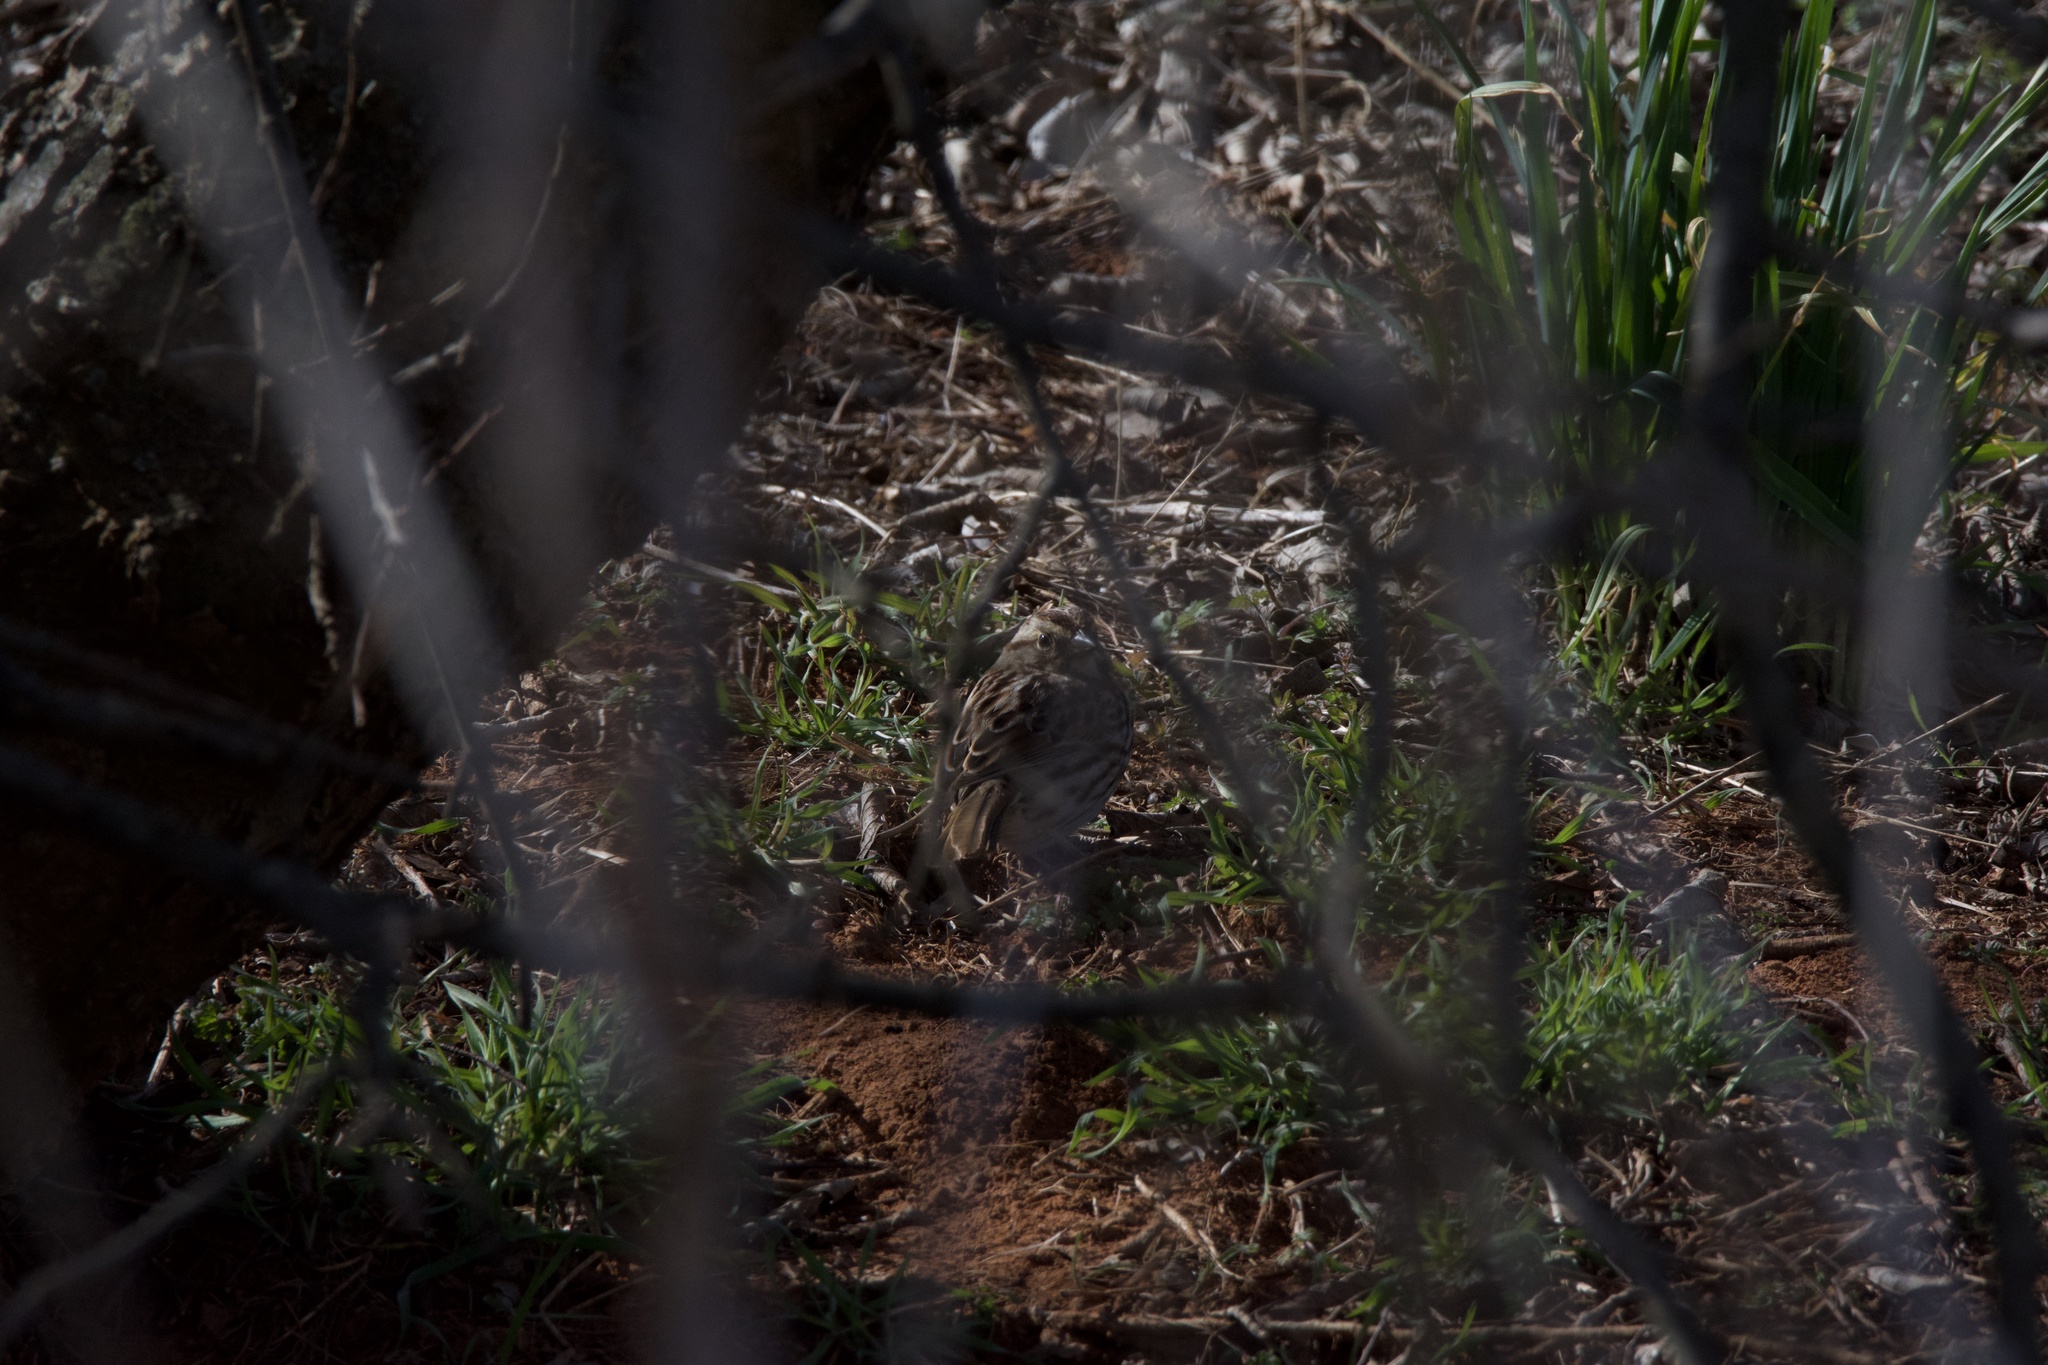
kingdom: Animalia
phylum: Chordata
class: Aves
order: Passeriformes
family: Passerellidae
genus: Melospiza
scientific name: Melospiza melodia
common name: Song sparrow
